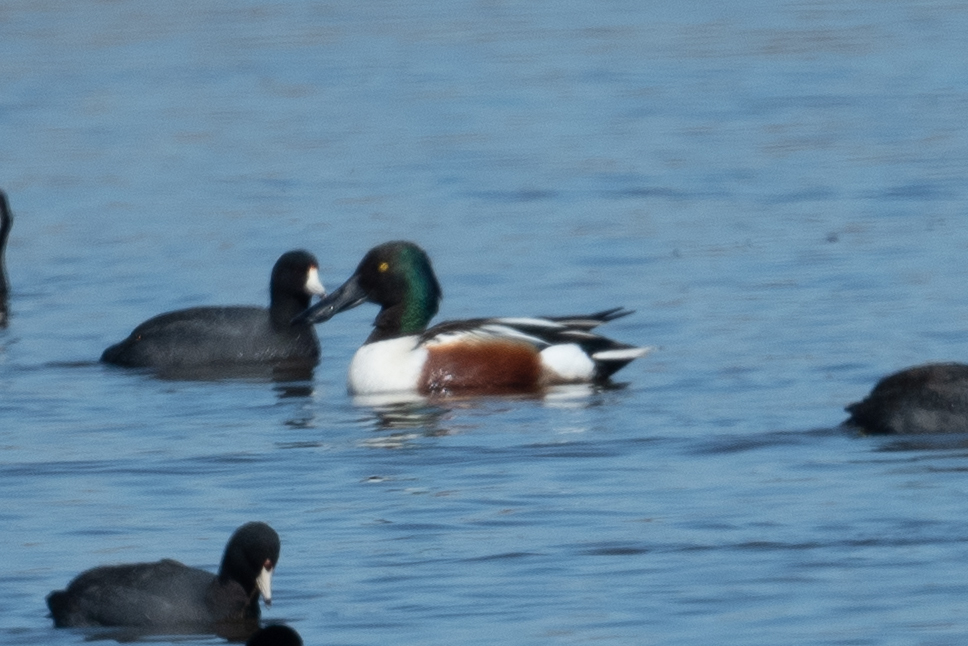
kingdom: Animalia
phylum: Chordata
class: Aves
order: Anseriformes
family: Anatidae
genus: Spatula
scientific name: Spatula clypeata
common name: Northern shoveler
